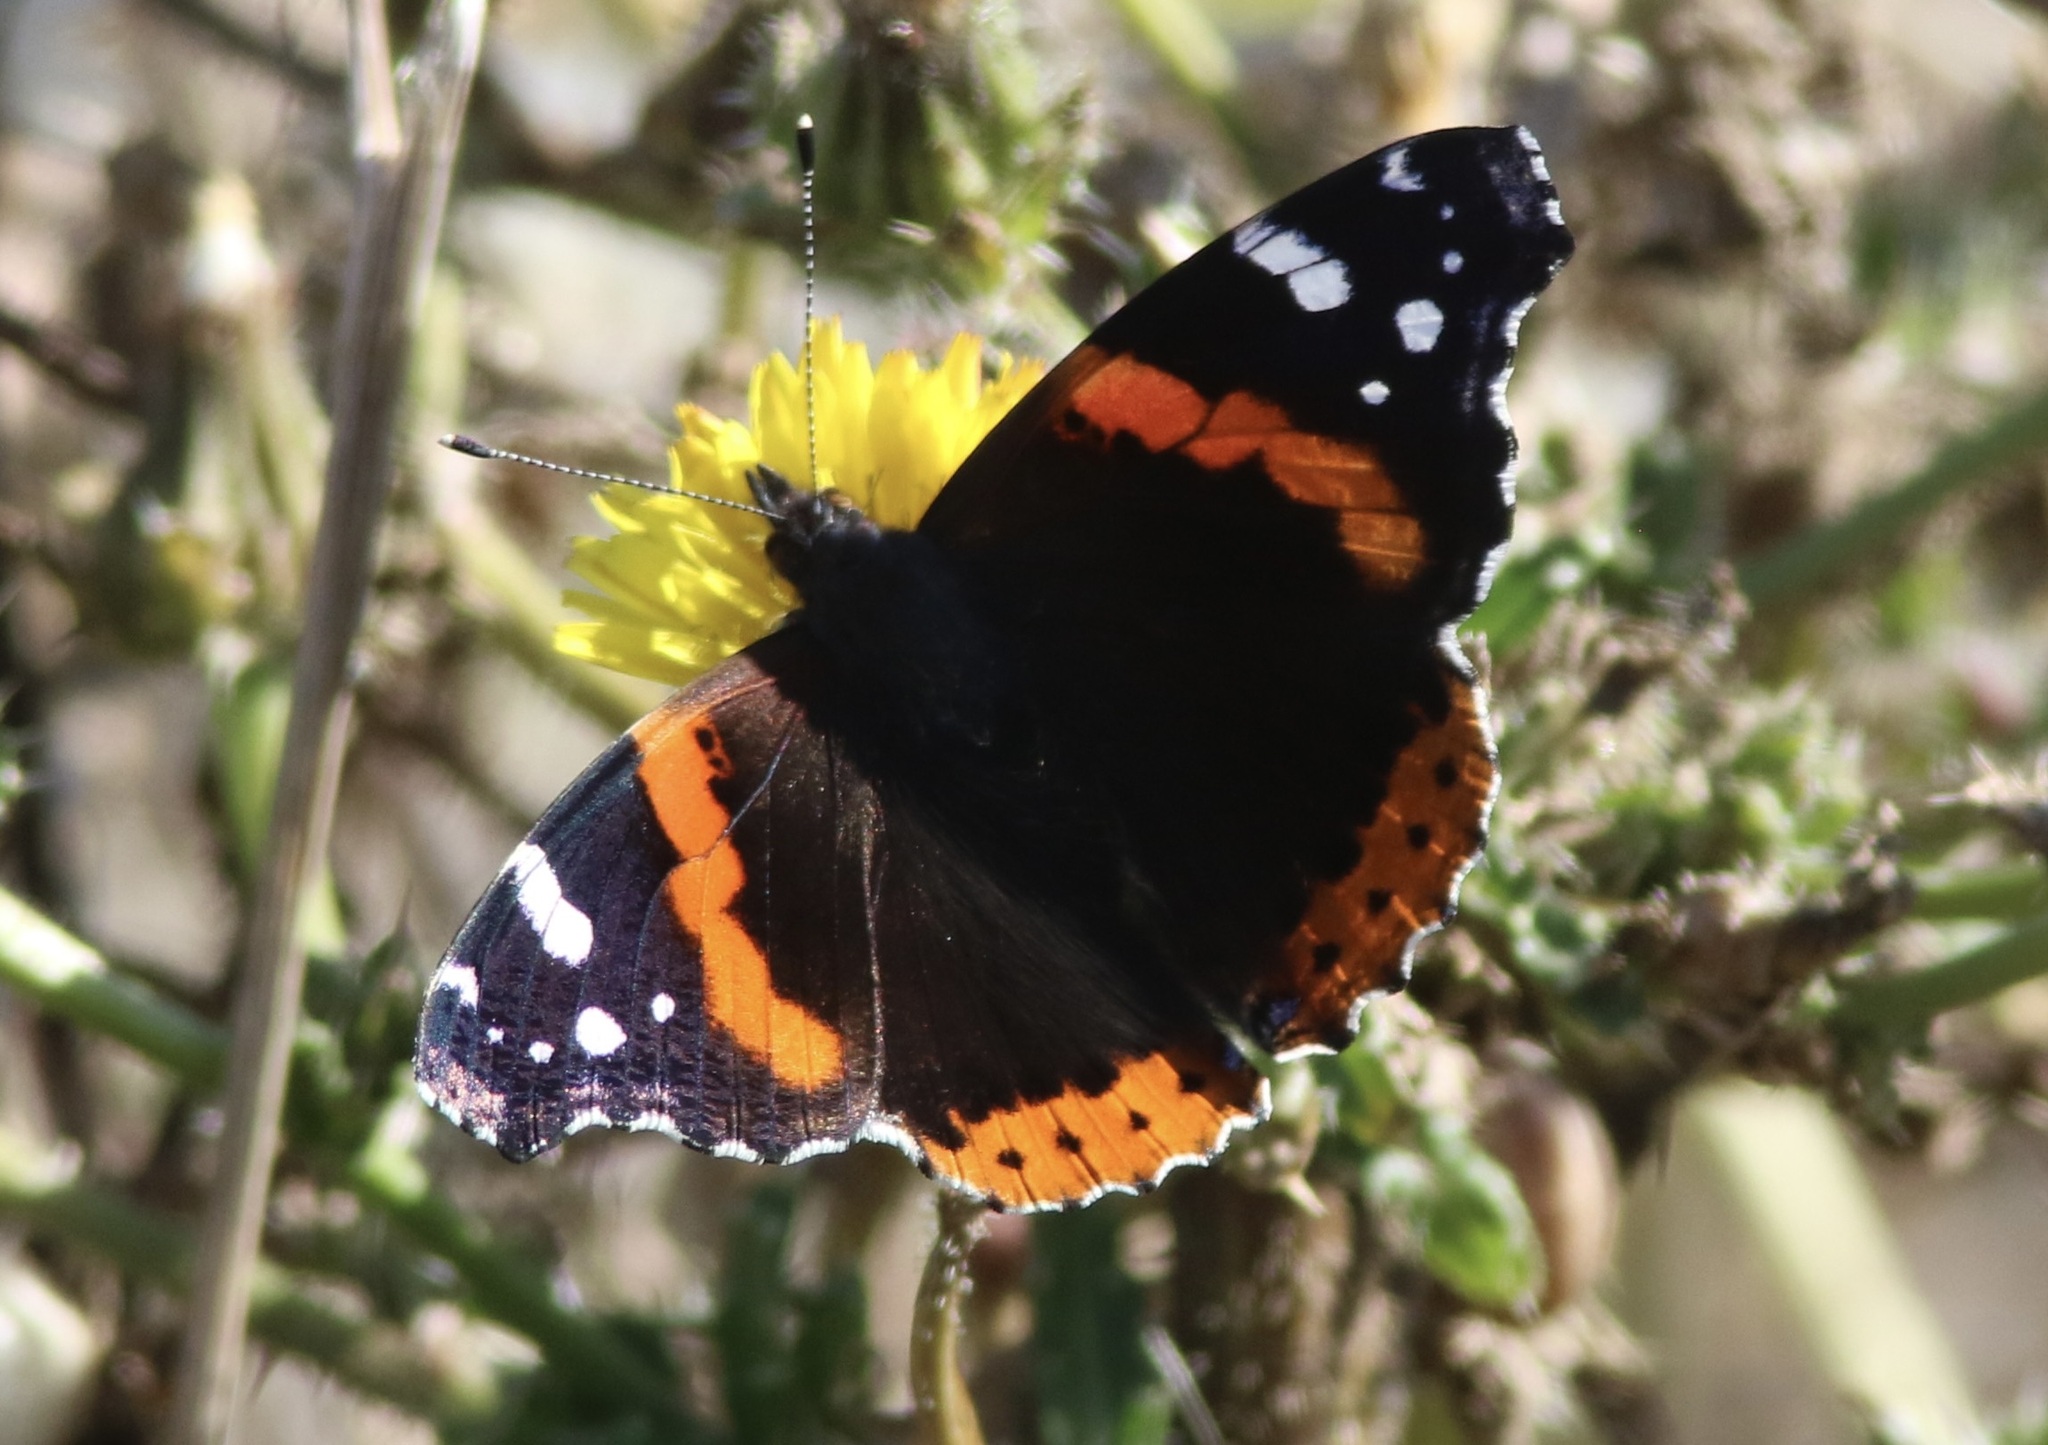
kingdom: Animalia
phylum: Arthropoda
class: Insecta
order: Lepidoptera
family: Nymphalidae
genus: Vanessa
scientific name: Vanessa atalanta
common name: Red admiral
